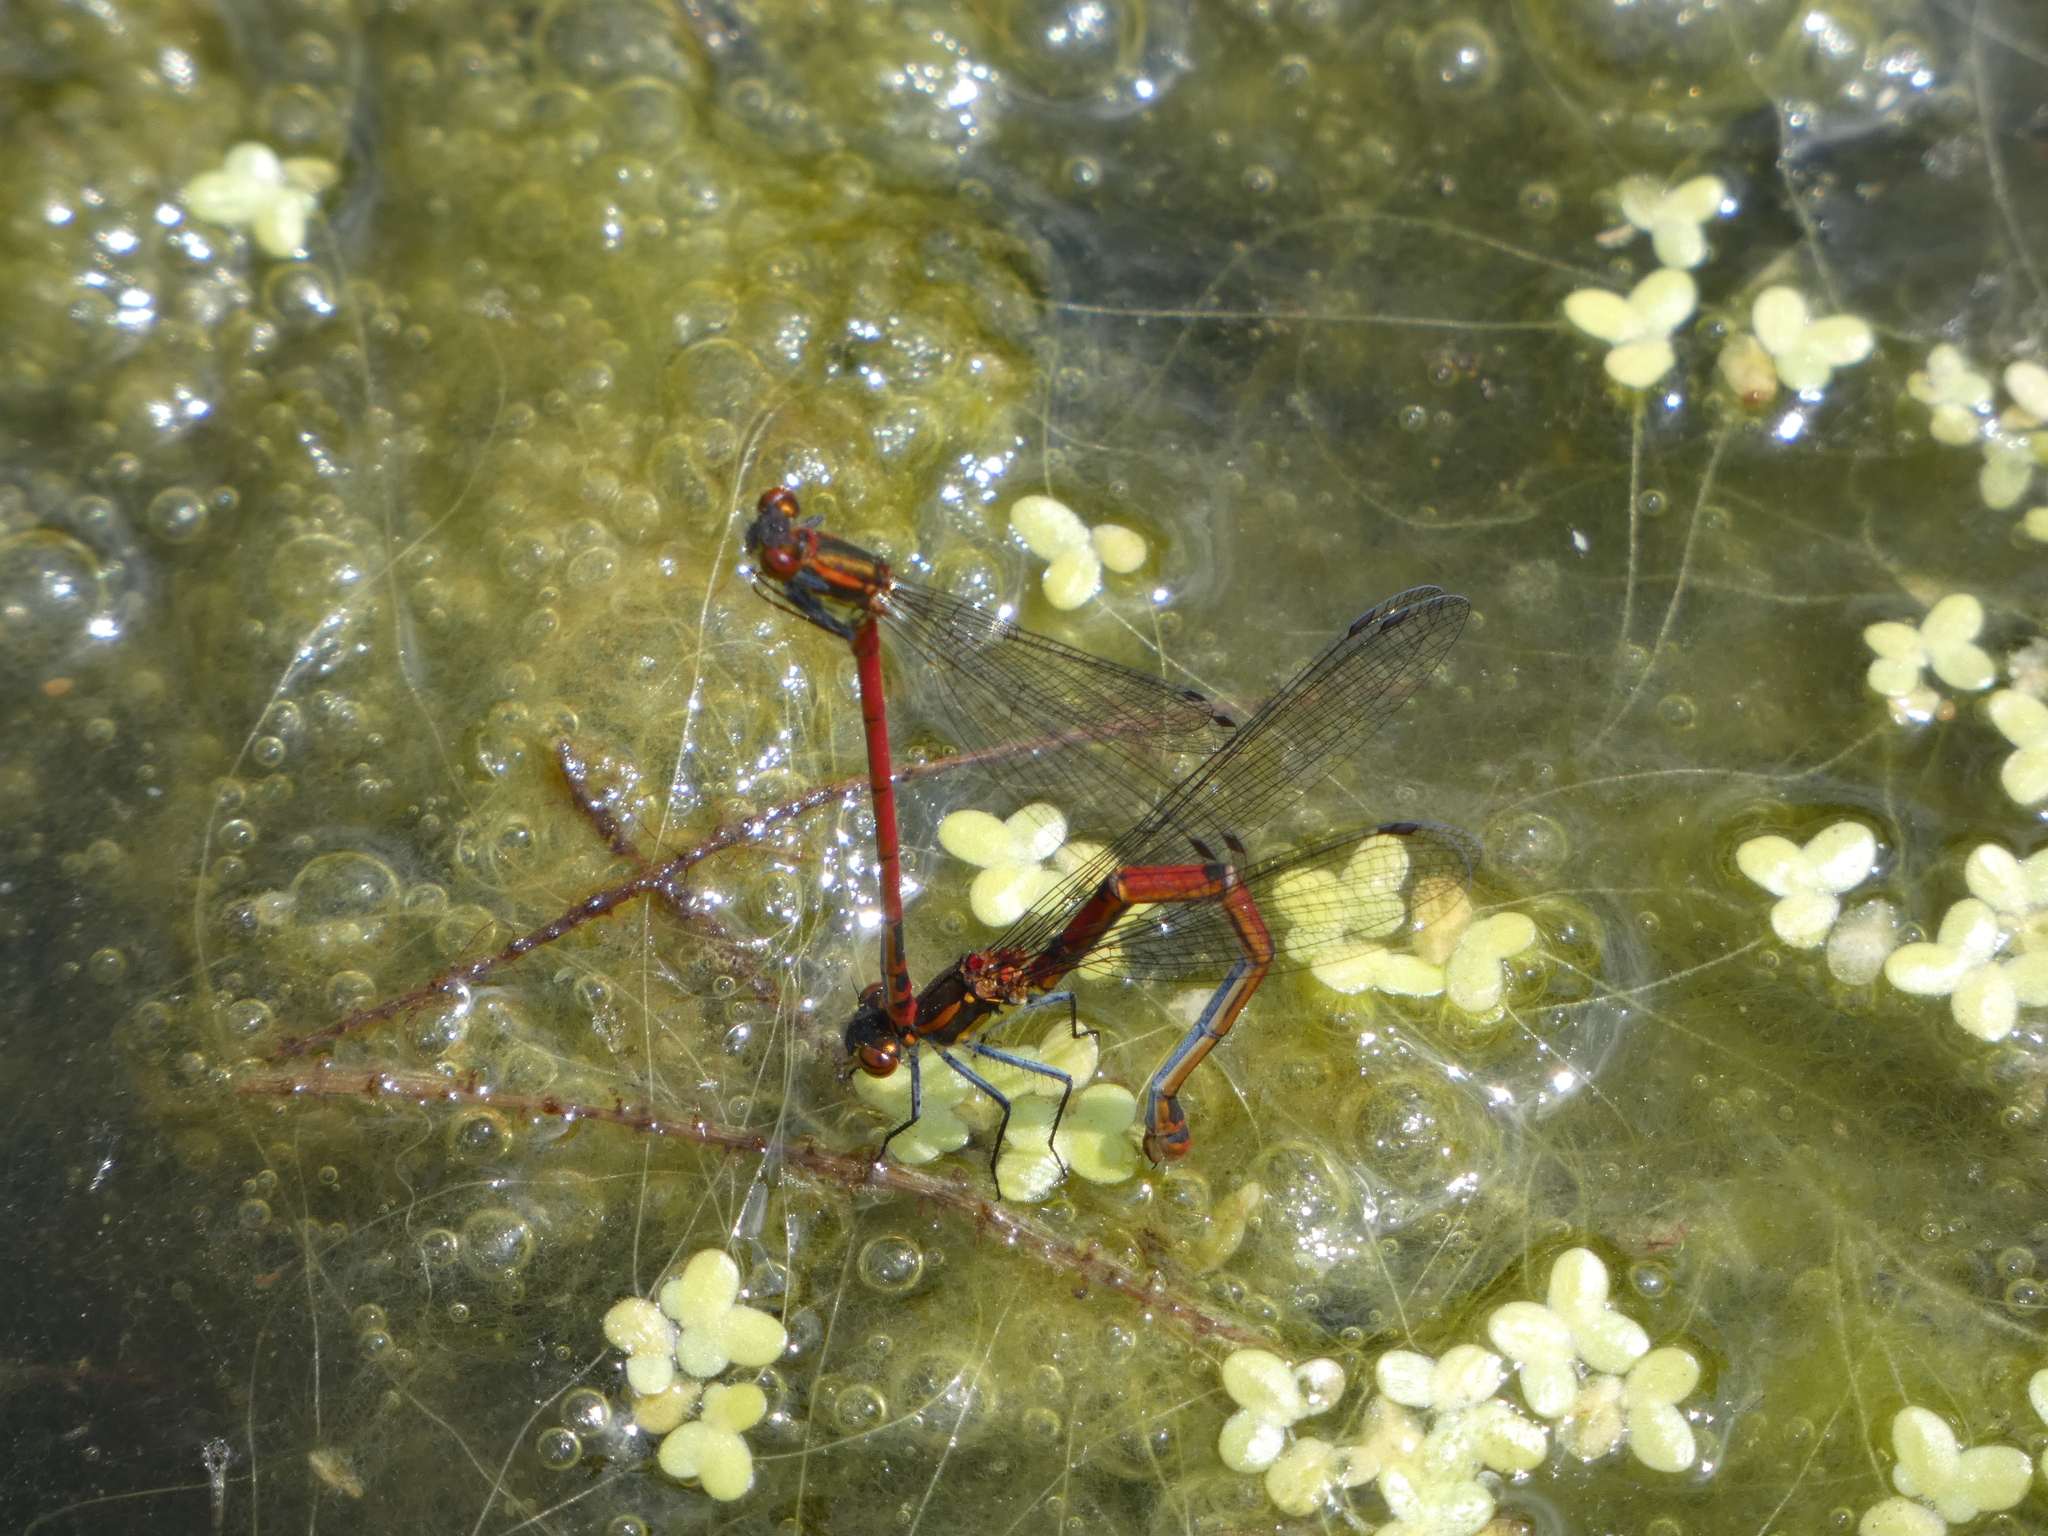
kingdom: Animalia
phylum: Arthropoda
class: Insecta
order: Odonata
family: Coenagrionidae
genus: Pyrrhosoma
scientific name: Pyrrhosoma nymphula
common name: Large red damsel
